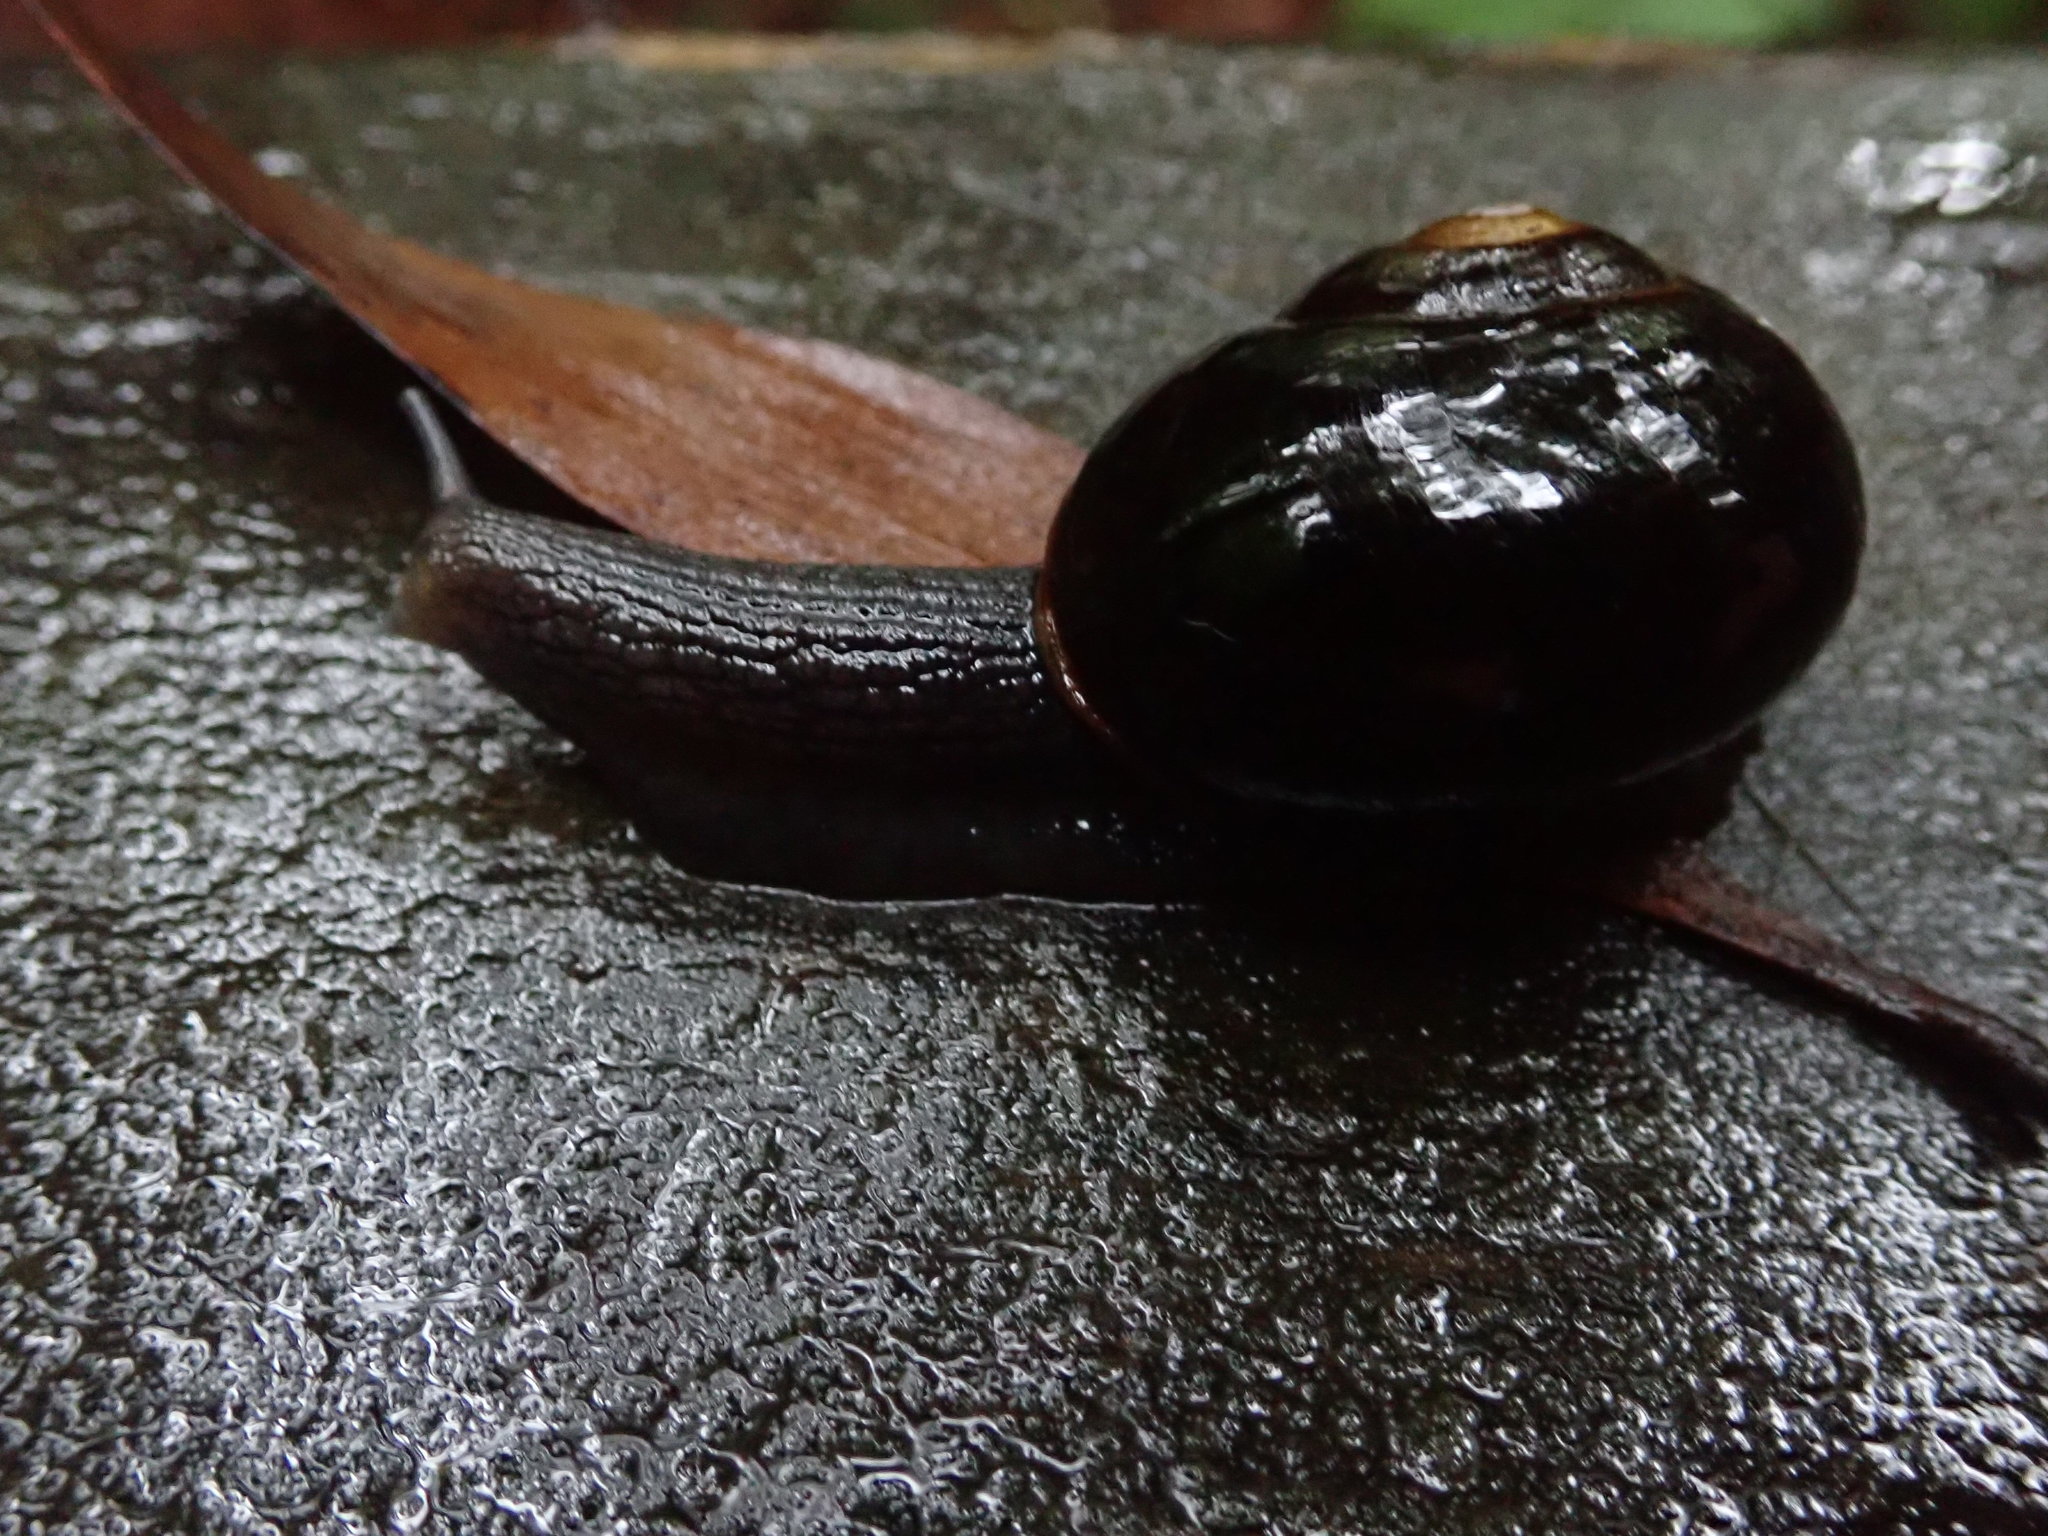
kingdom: Animalia
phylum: Mollusca
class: Gastropoda
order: Stylommatophora
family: Rhytididae
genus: Victaphanta
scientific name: Victaphanta compacta
